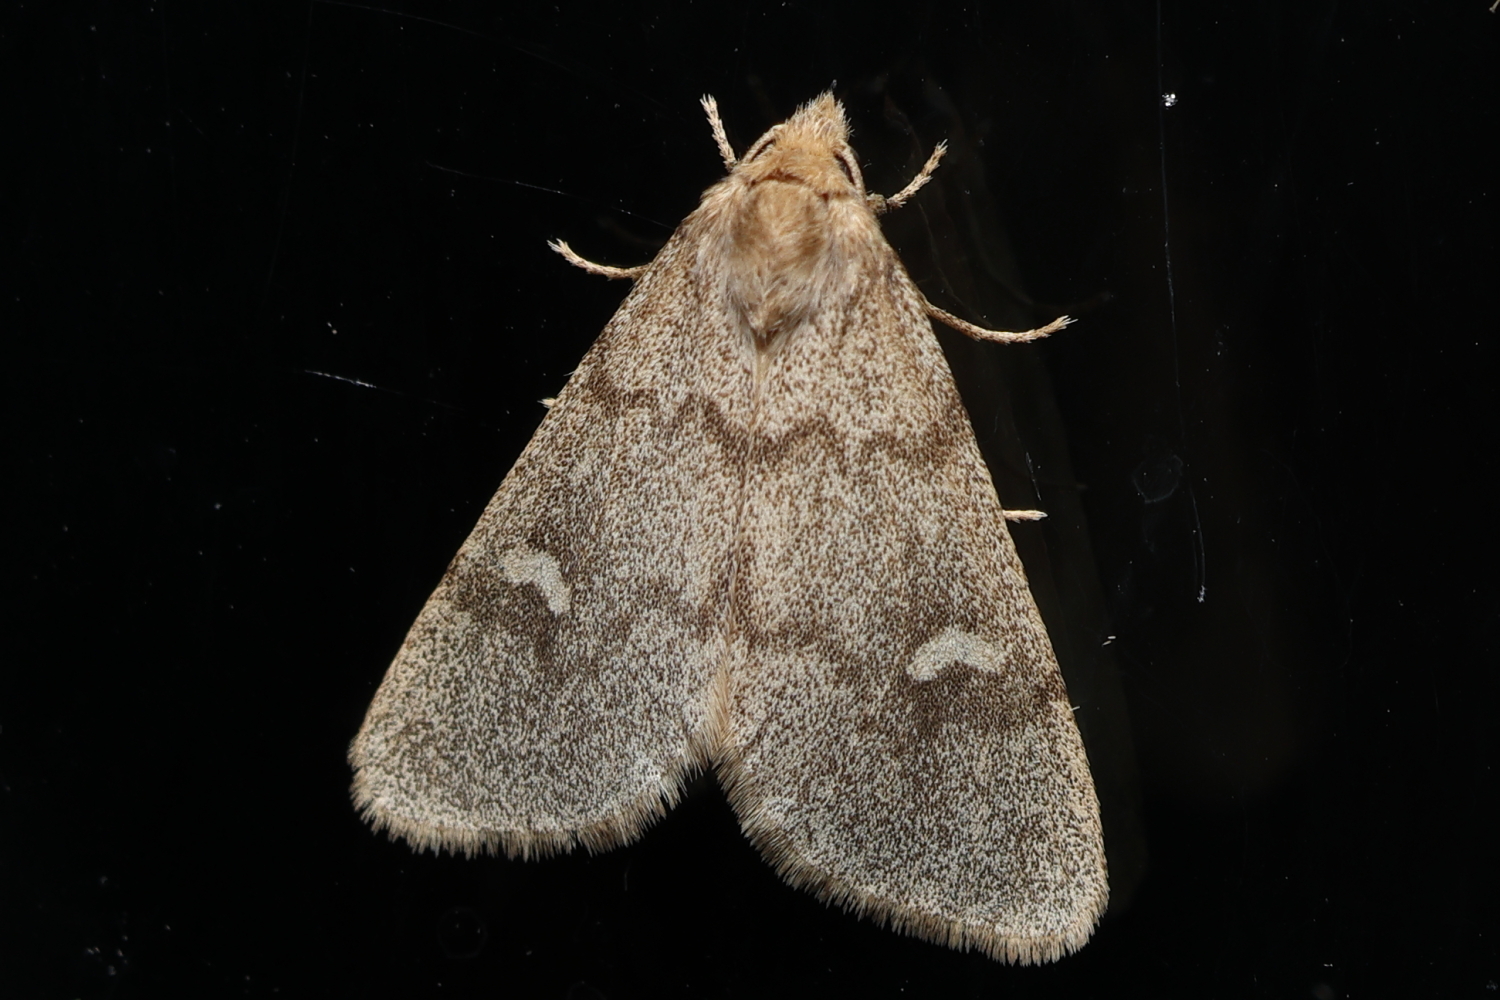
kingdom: Animalia
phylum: Arthropoda
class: Insecta
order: Lepidoptera
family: Noctuidae
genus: Narthecophora
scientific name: Narthecophora pulverea
